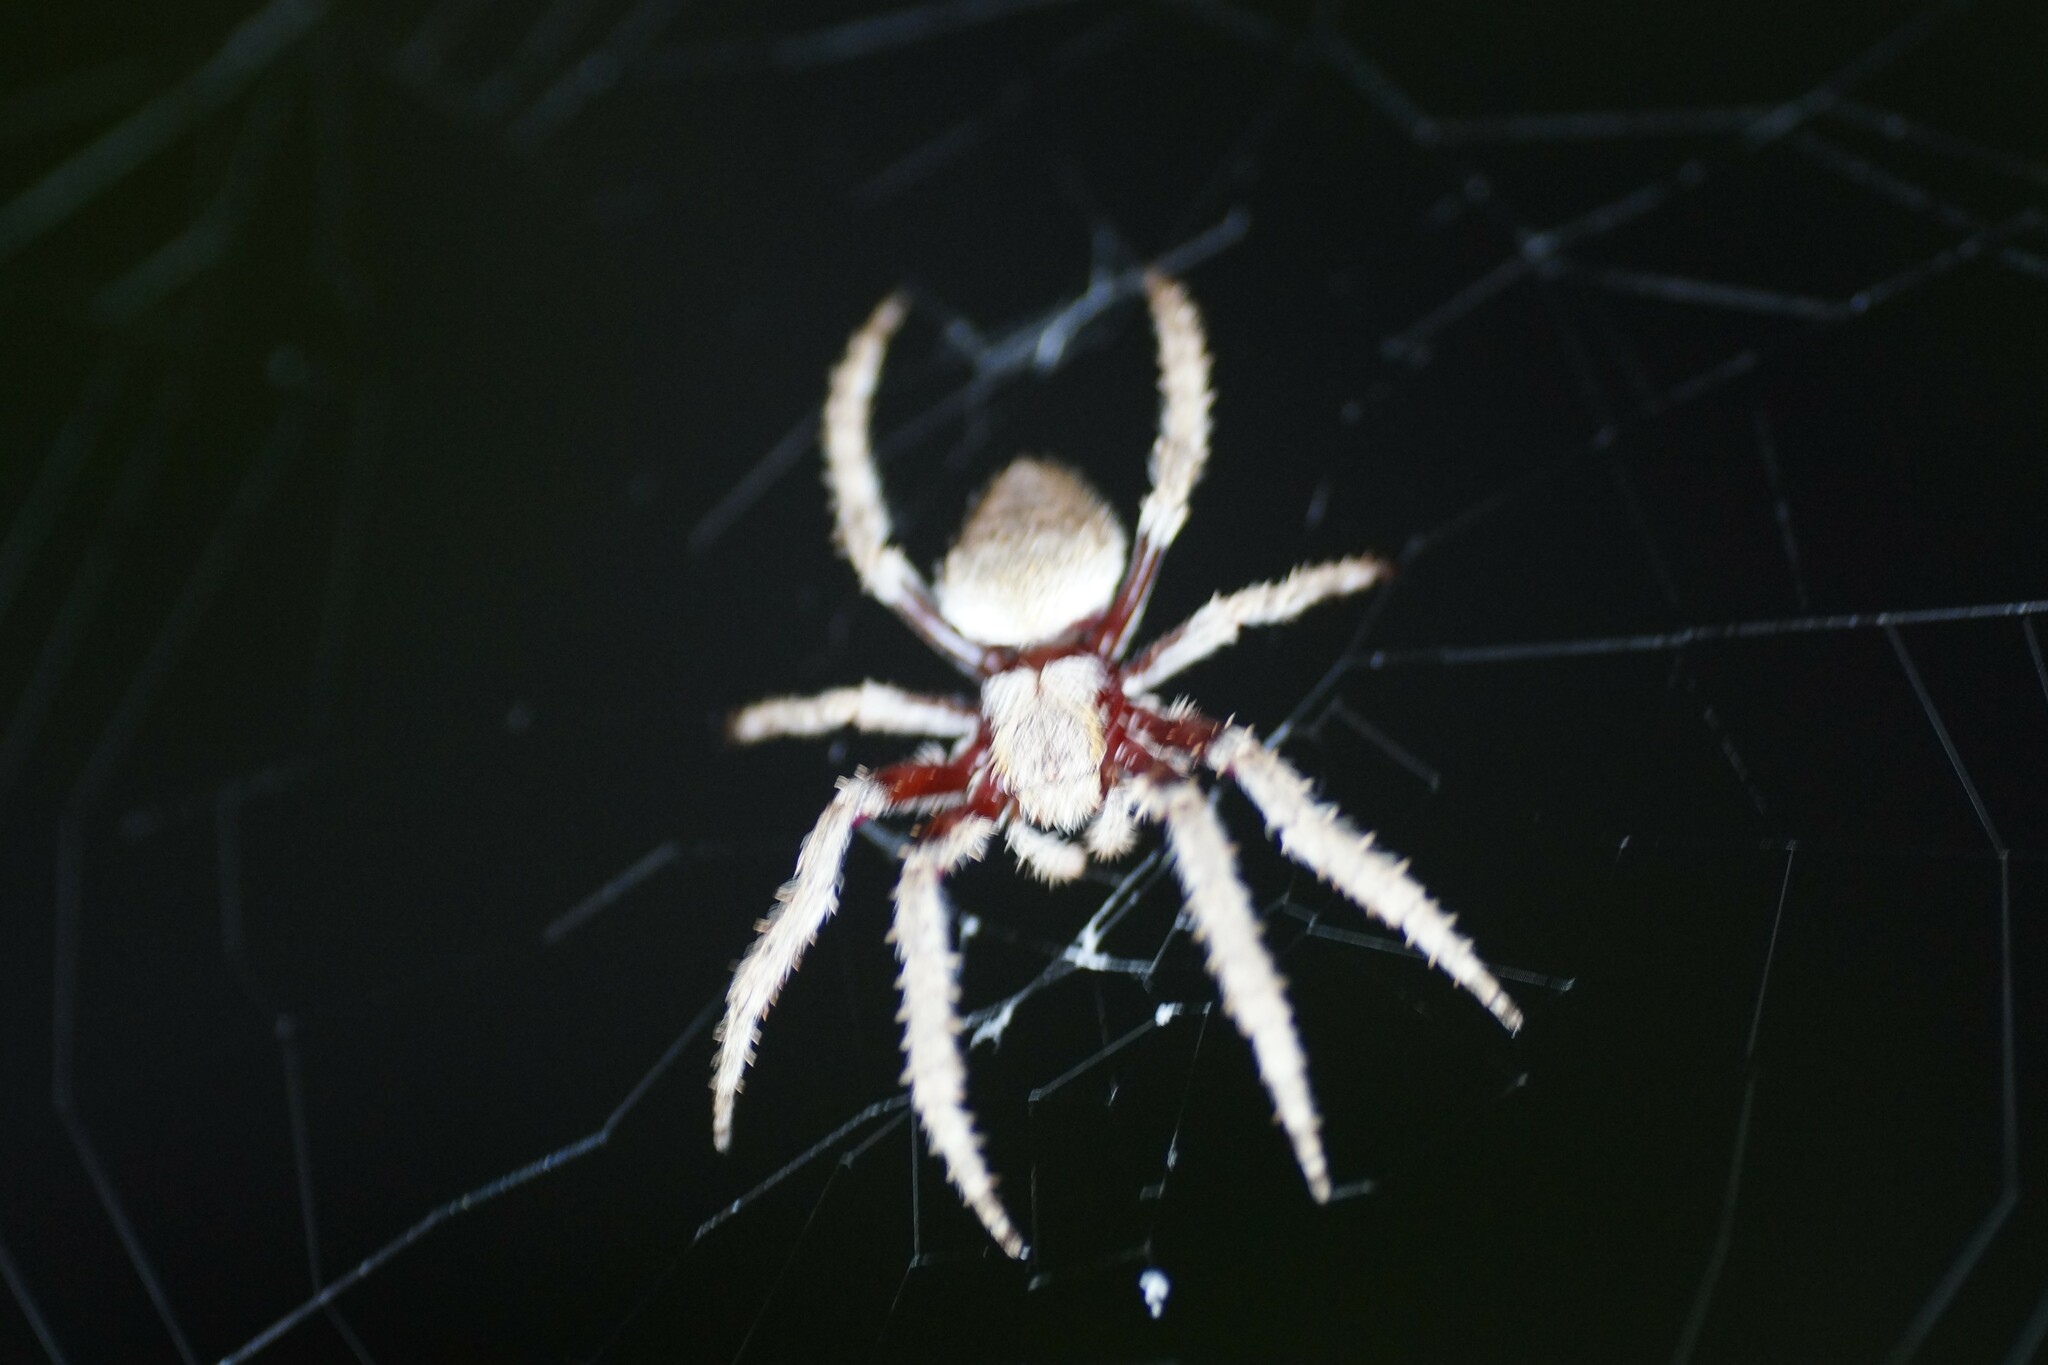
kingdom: Animalia
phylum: Arthropoda
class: Arachnida
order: Araneae
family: Araneidae
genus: Hortophora
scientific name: Hortophora biapicata
